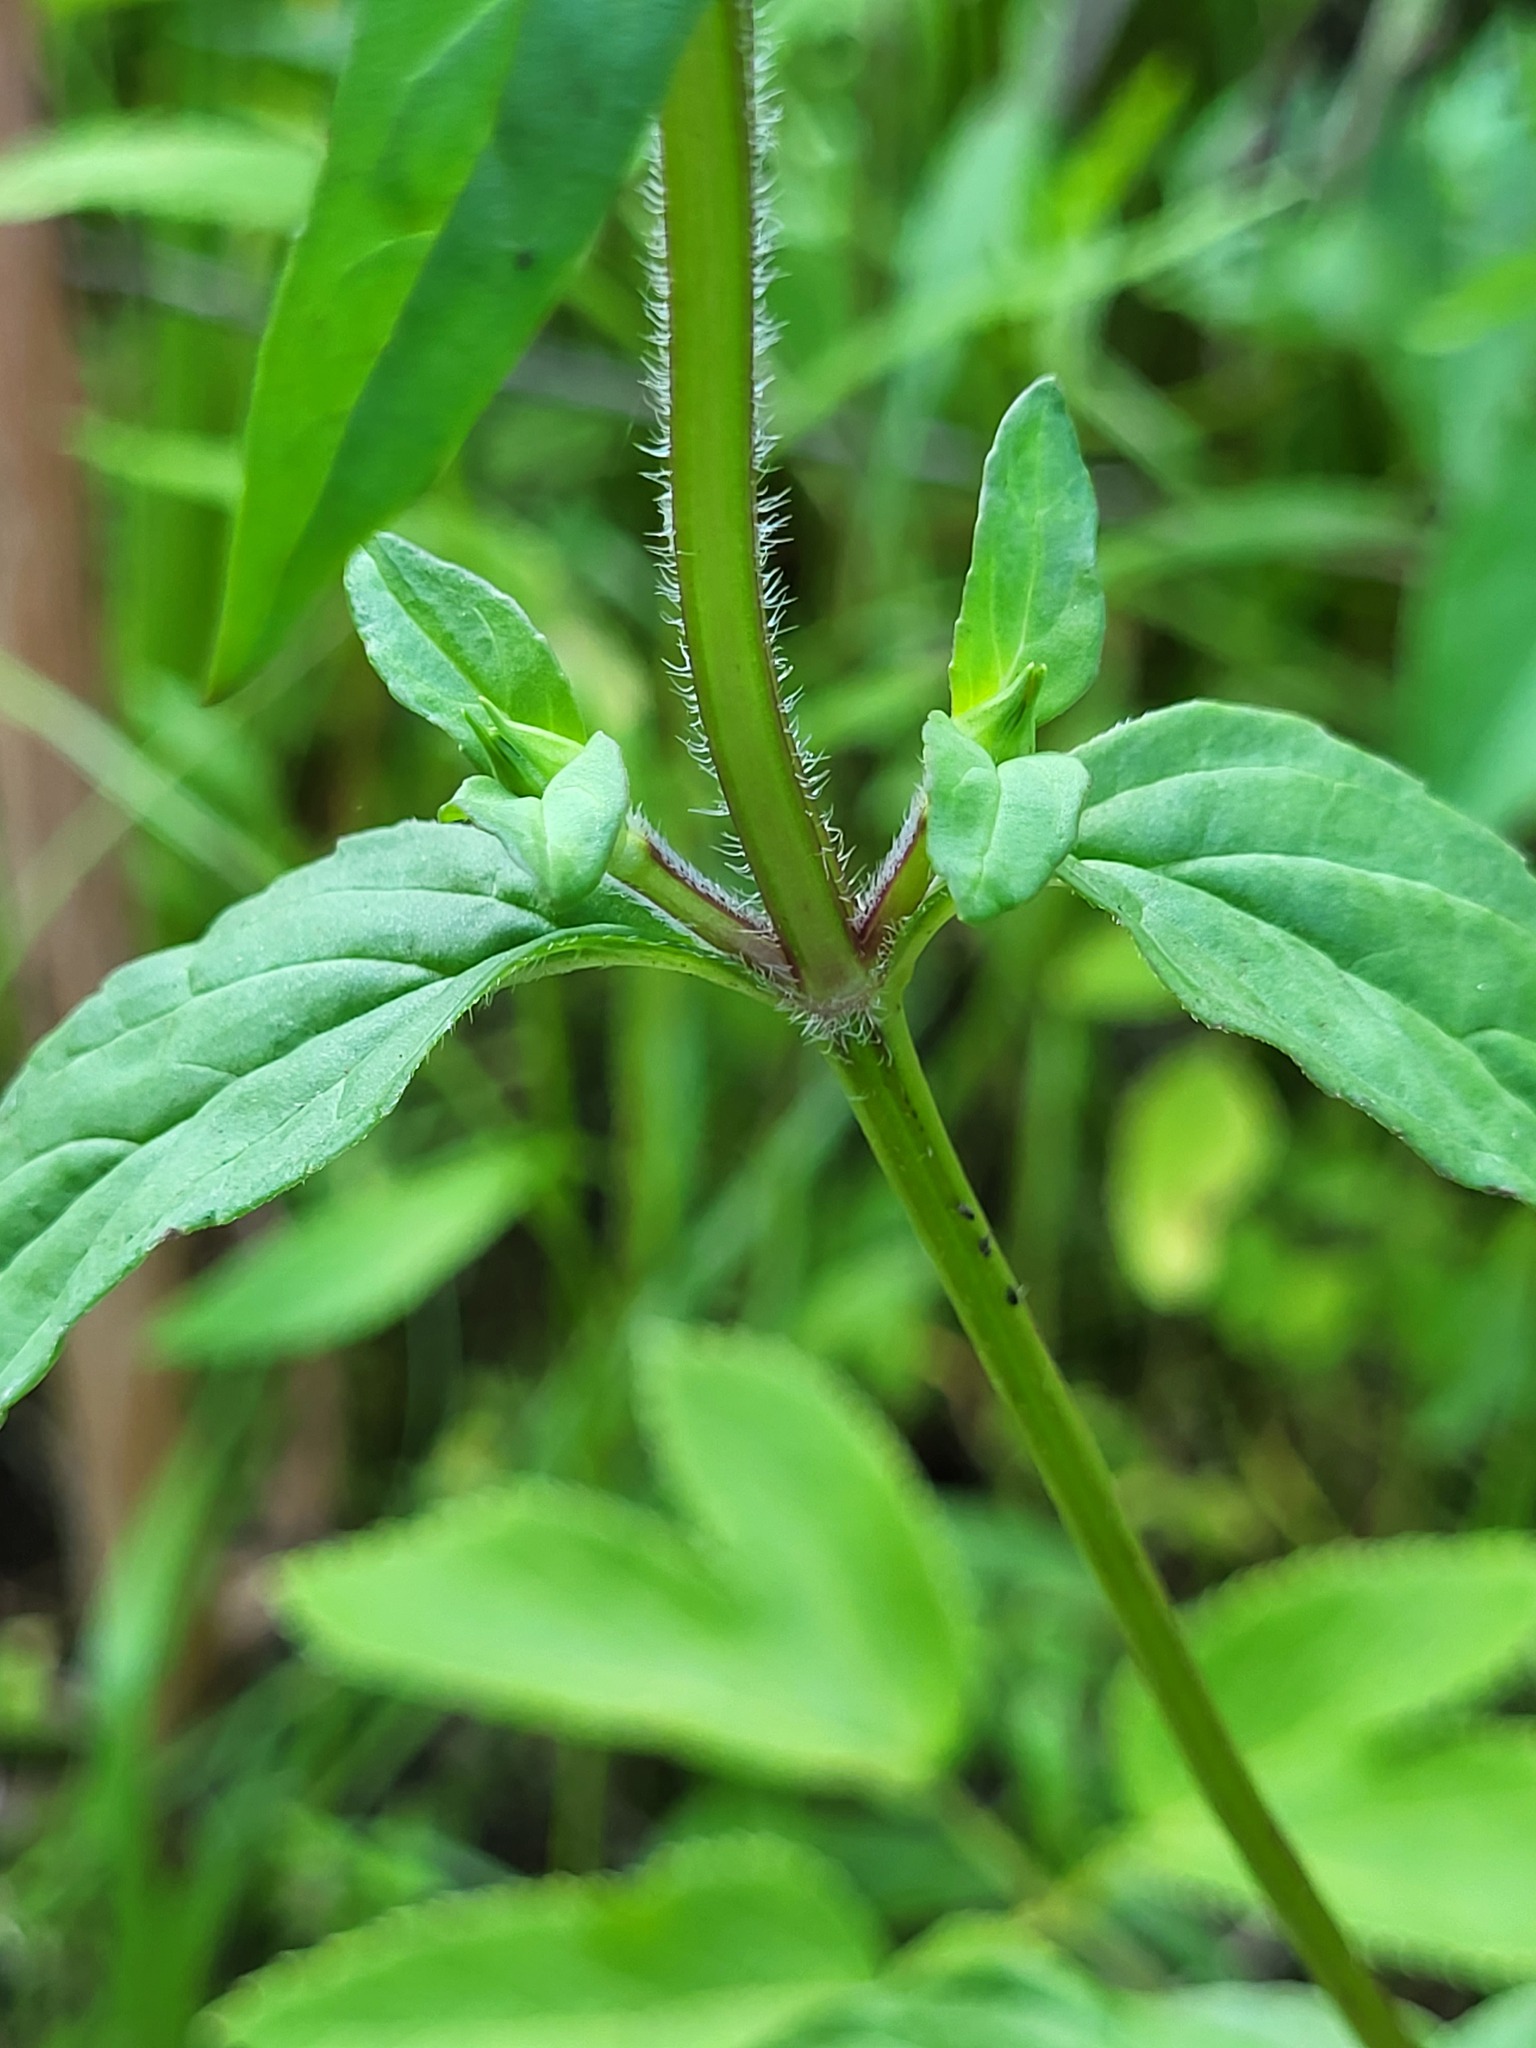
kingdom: Plantae
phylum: Tracheophyta
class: Magnoliopsida
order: Lamiales
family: Lamiaceae
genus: Prunella
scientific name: Prunella vulgaris
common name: Heal-all
